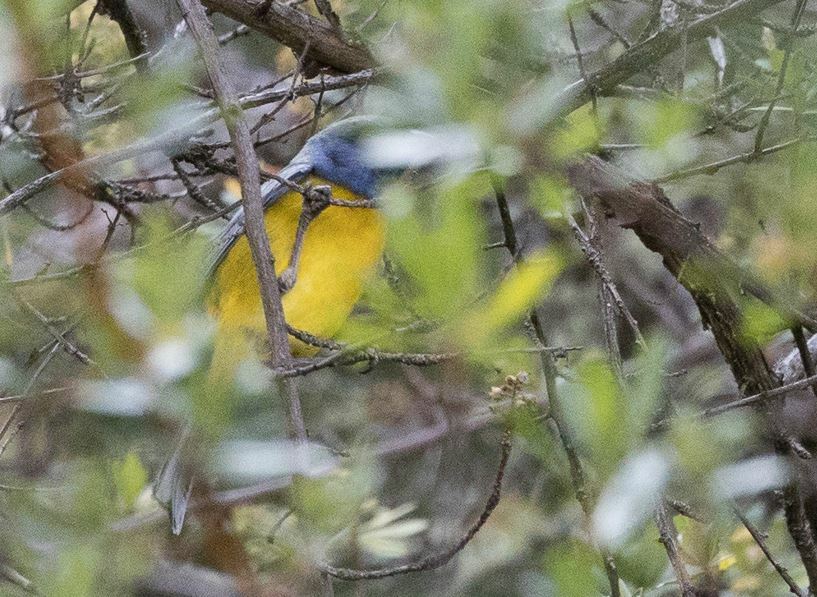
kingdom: Animalia
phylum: Chordata
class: Aves
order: Passeriformes
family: Thraupidae
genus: Rauenia
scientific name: Rauenia bonariensis
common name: Blue-and-yellow tanager
